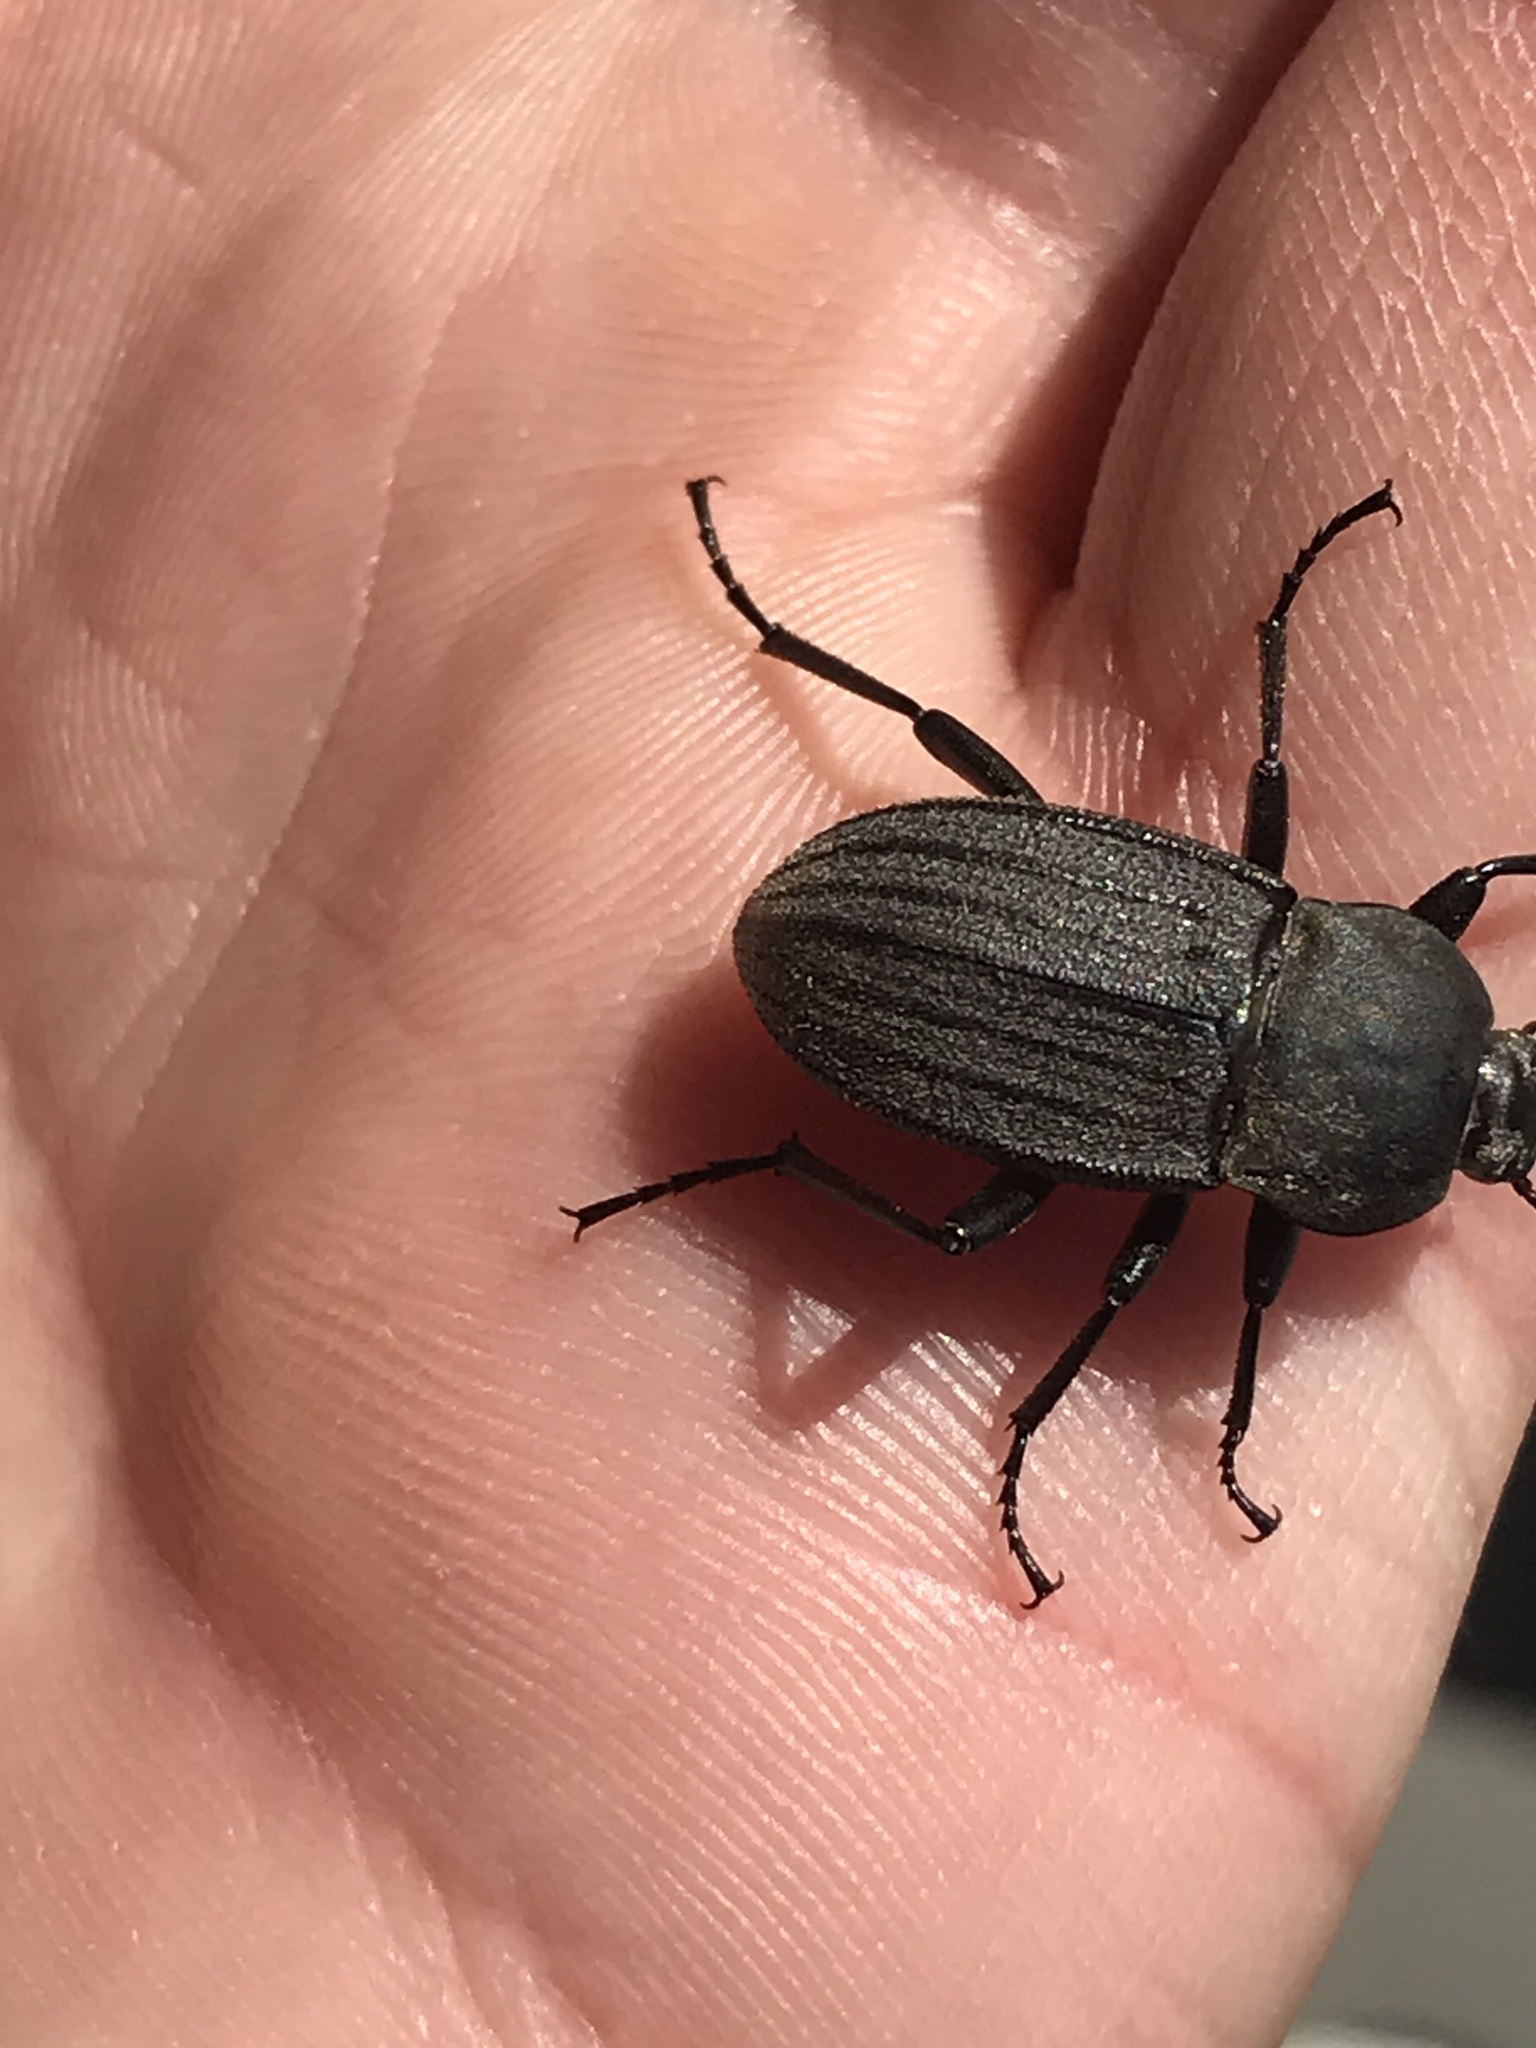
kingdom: Animalia
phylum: Arthropoda
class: Insecta
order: Coleoptera
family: Tenebrionidae
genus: Eleodes
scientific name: Eleodes tricostata
